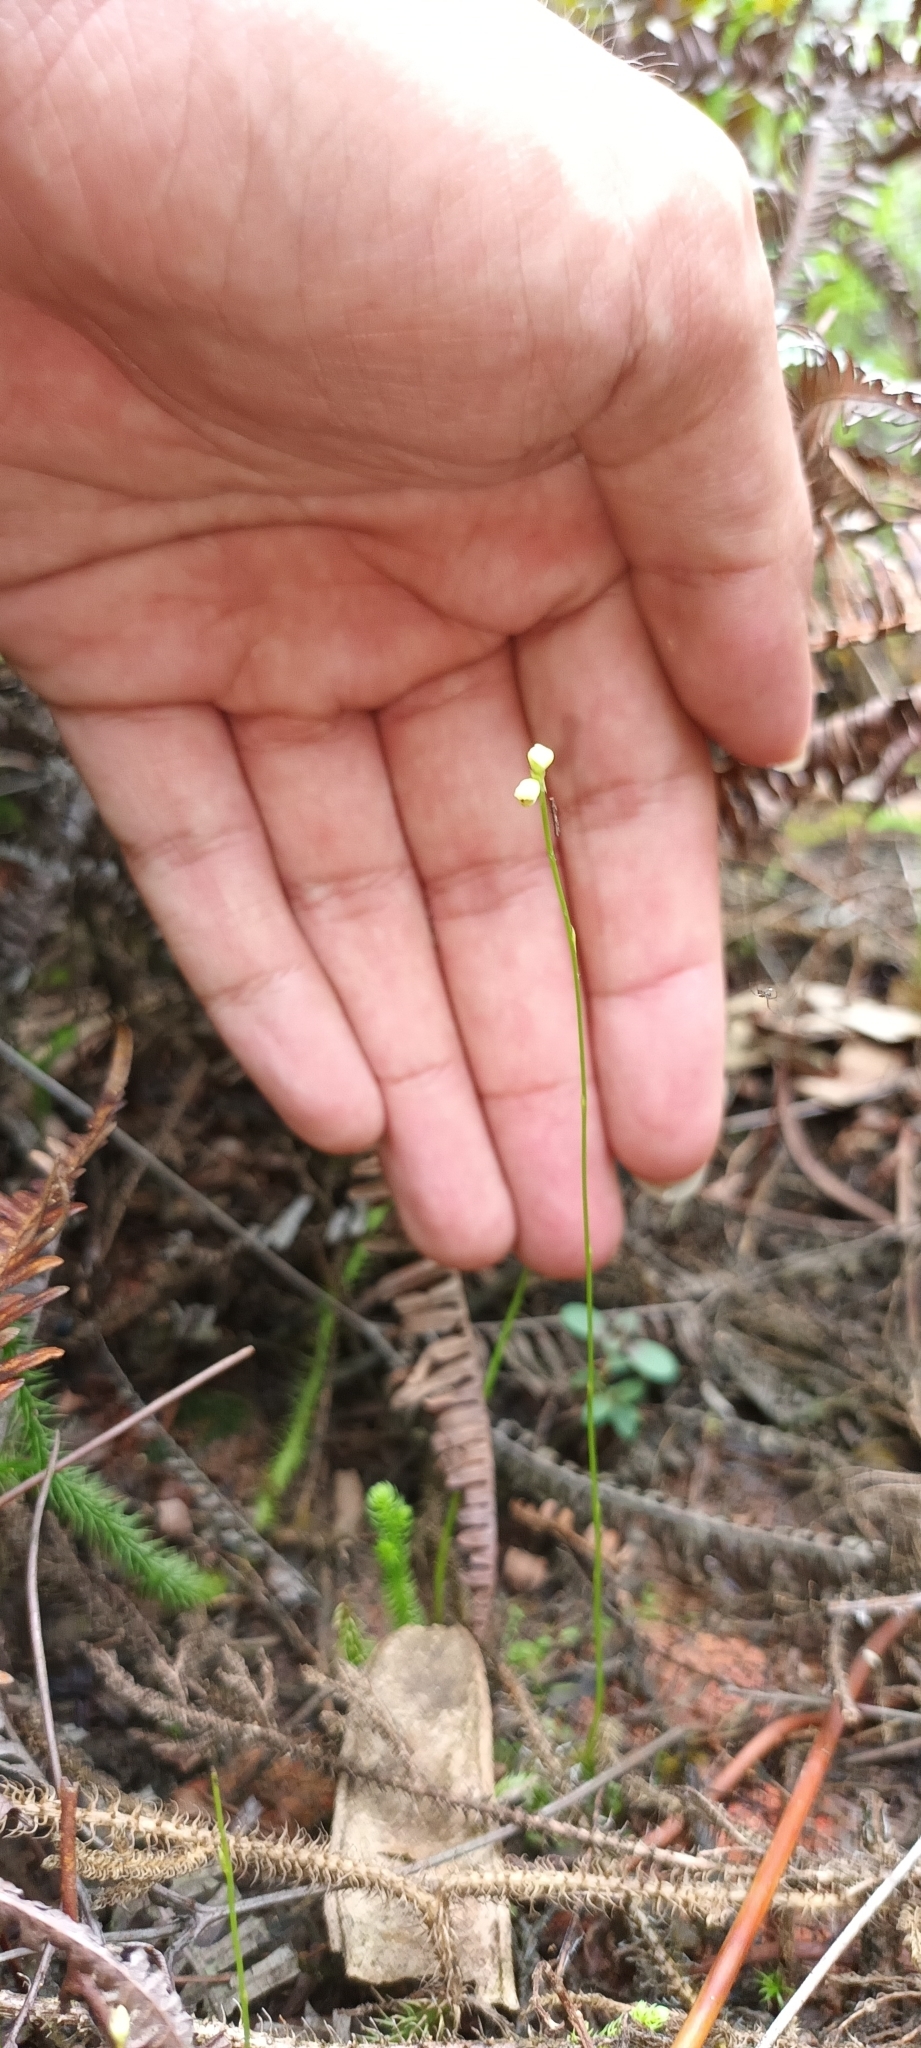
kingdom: Plantae
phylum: Tracheophyta
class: Magnoliopsida
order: Lamiales
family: Lentibulariaceae
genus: Utricularia
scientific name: Utricularia caerulea
